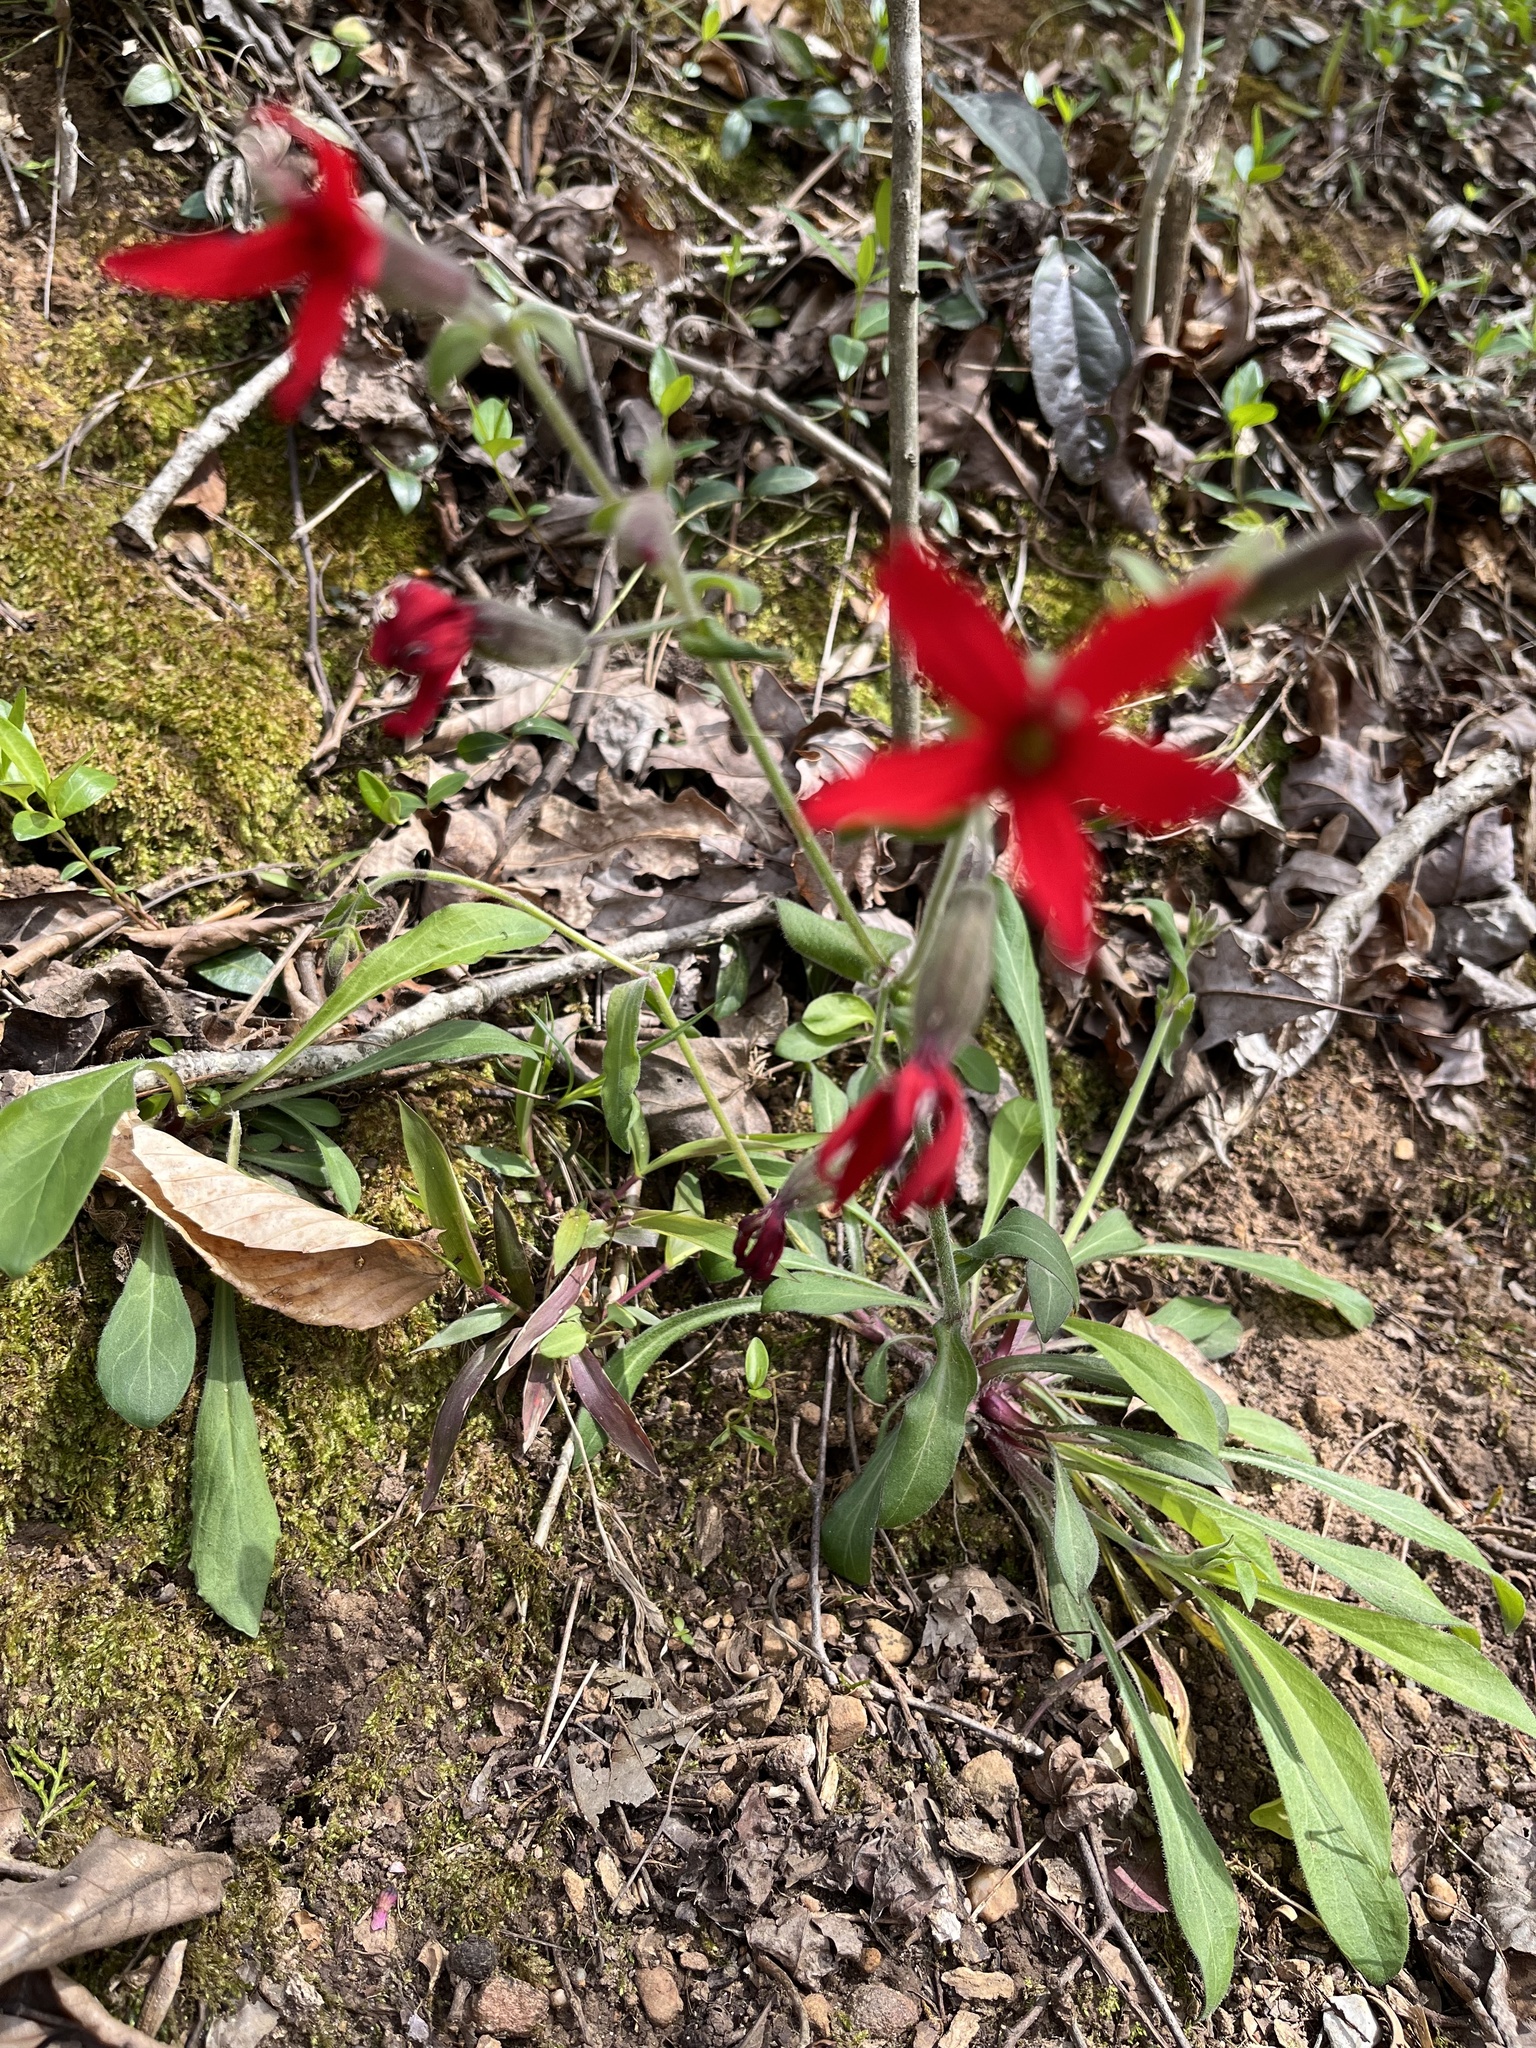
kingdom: Plantae
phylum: Tracheophyta
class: Magnoliopsida
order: Caryophyllales
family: Caryophyllaceae
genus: Silene
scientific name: Silene virginica
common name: Fire-pink
